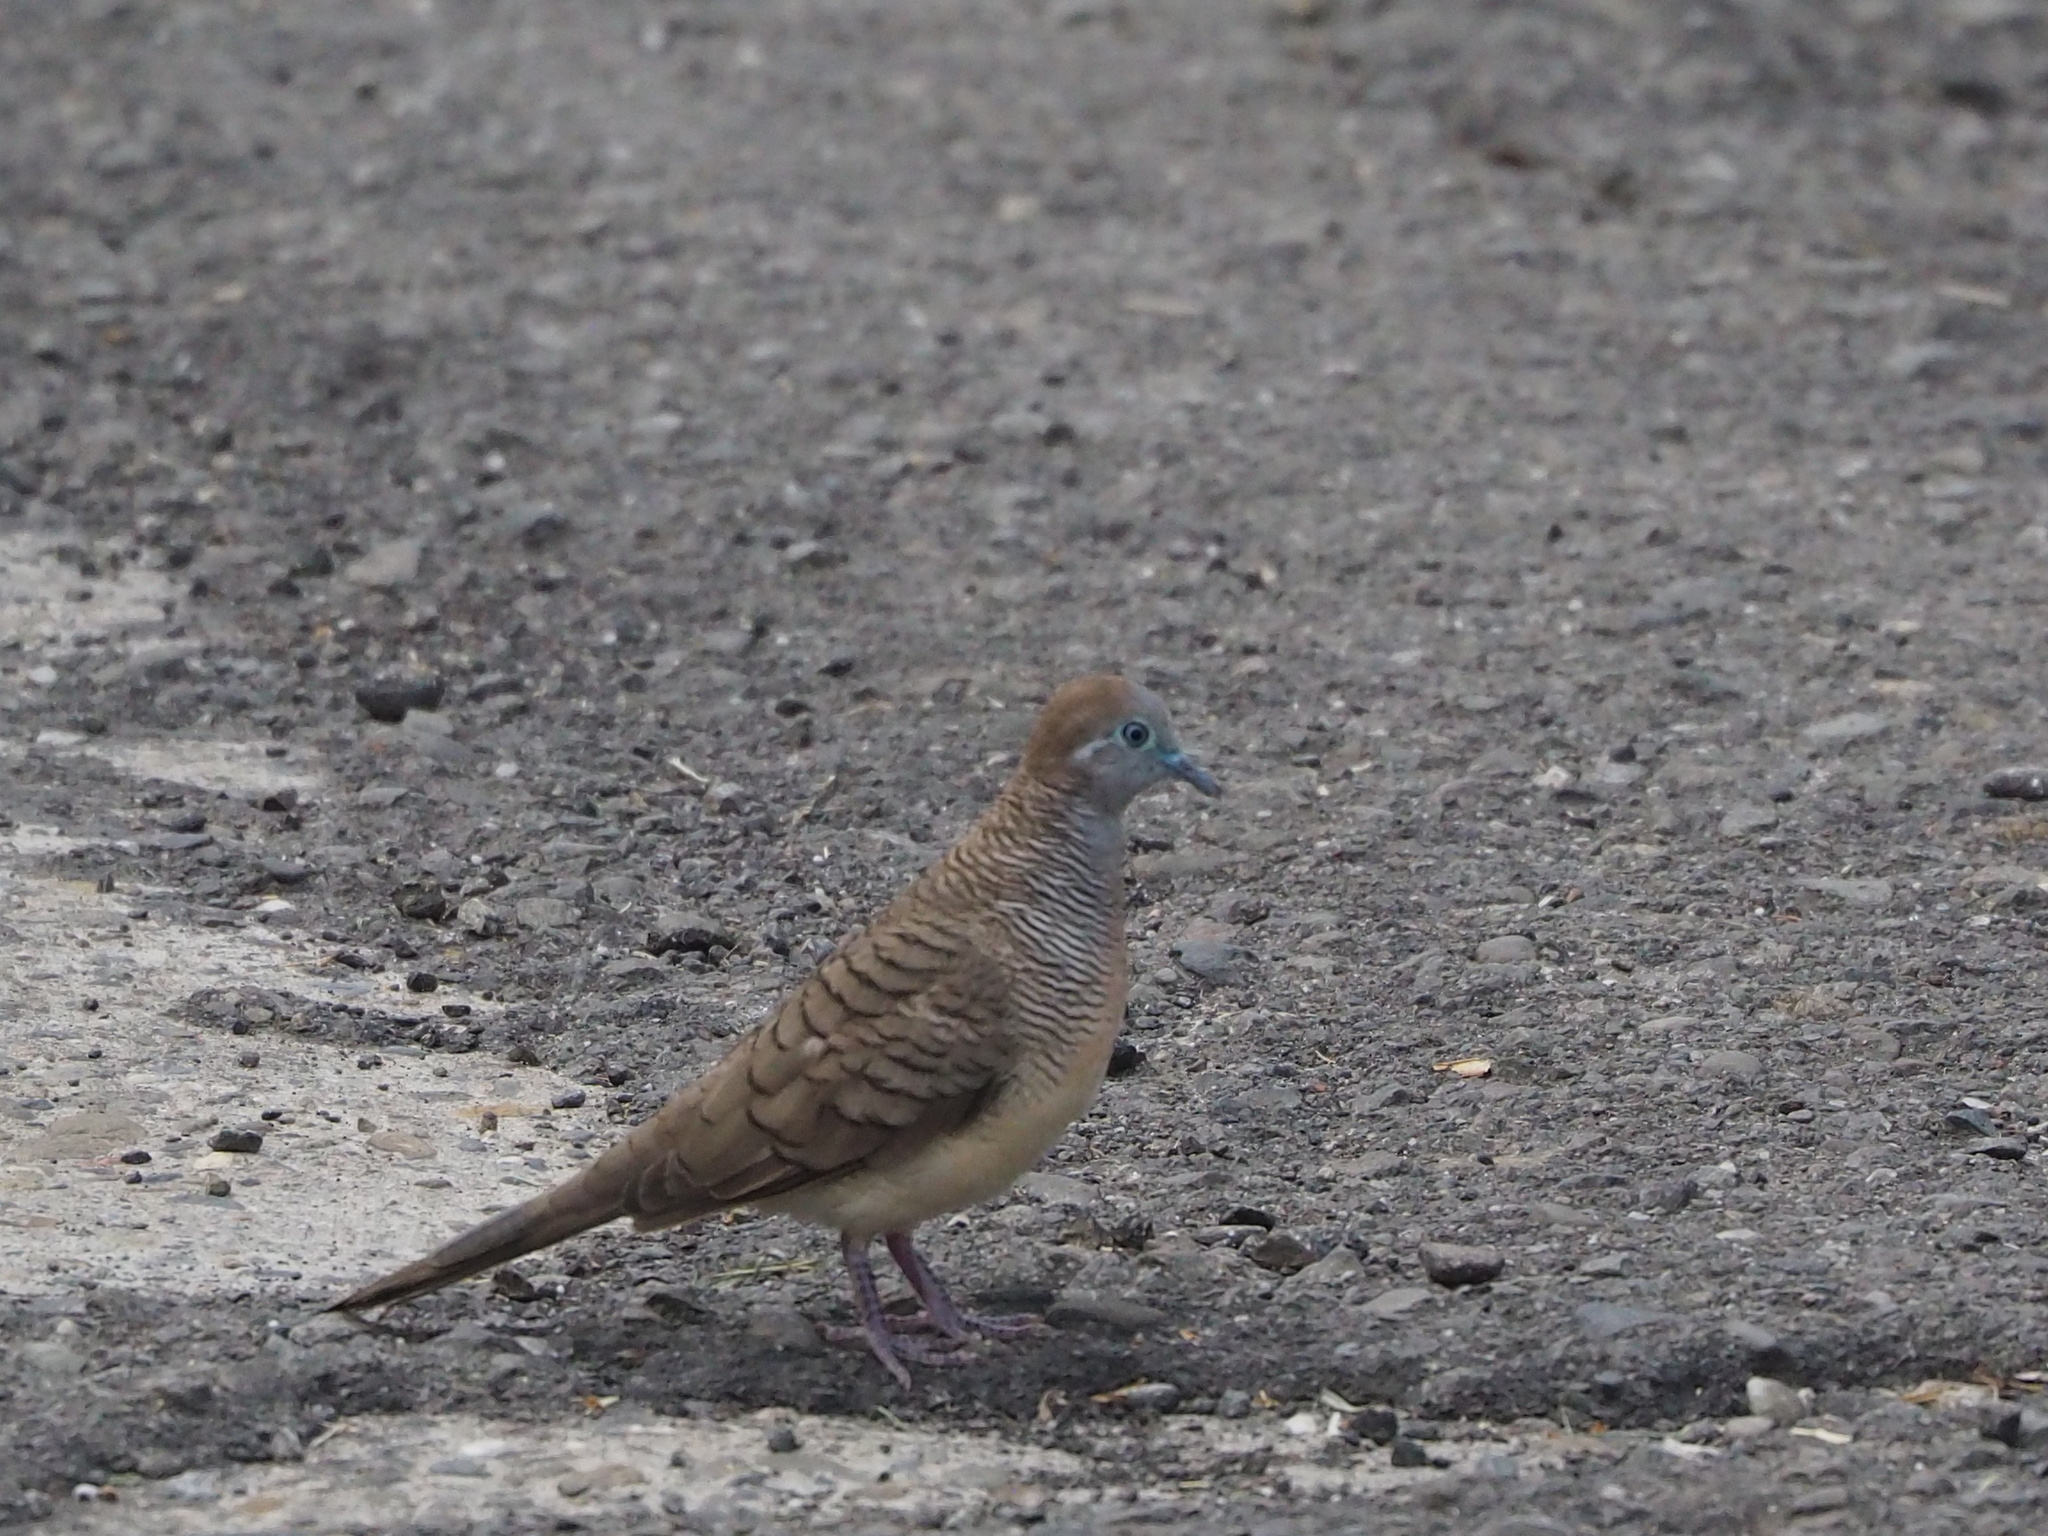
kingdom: Animalia
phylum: Chordata
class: Aves
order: Columbiformes
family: Columbidae
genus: Geopelia
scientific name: Geopelia striata
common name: Zebra dove
